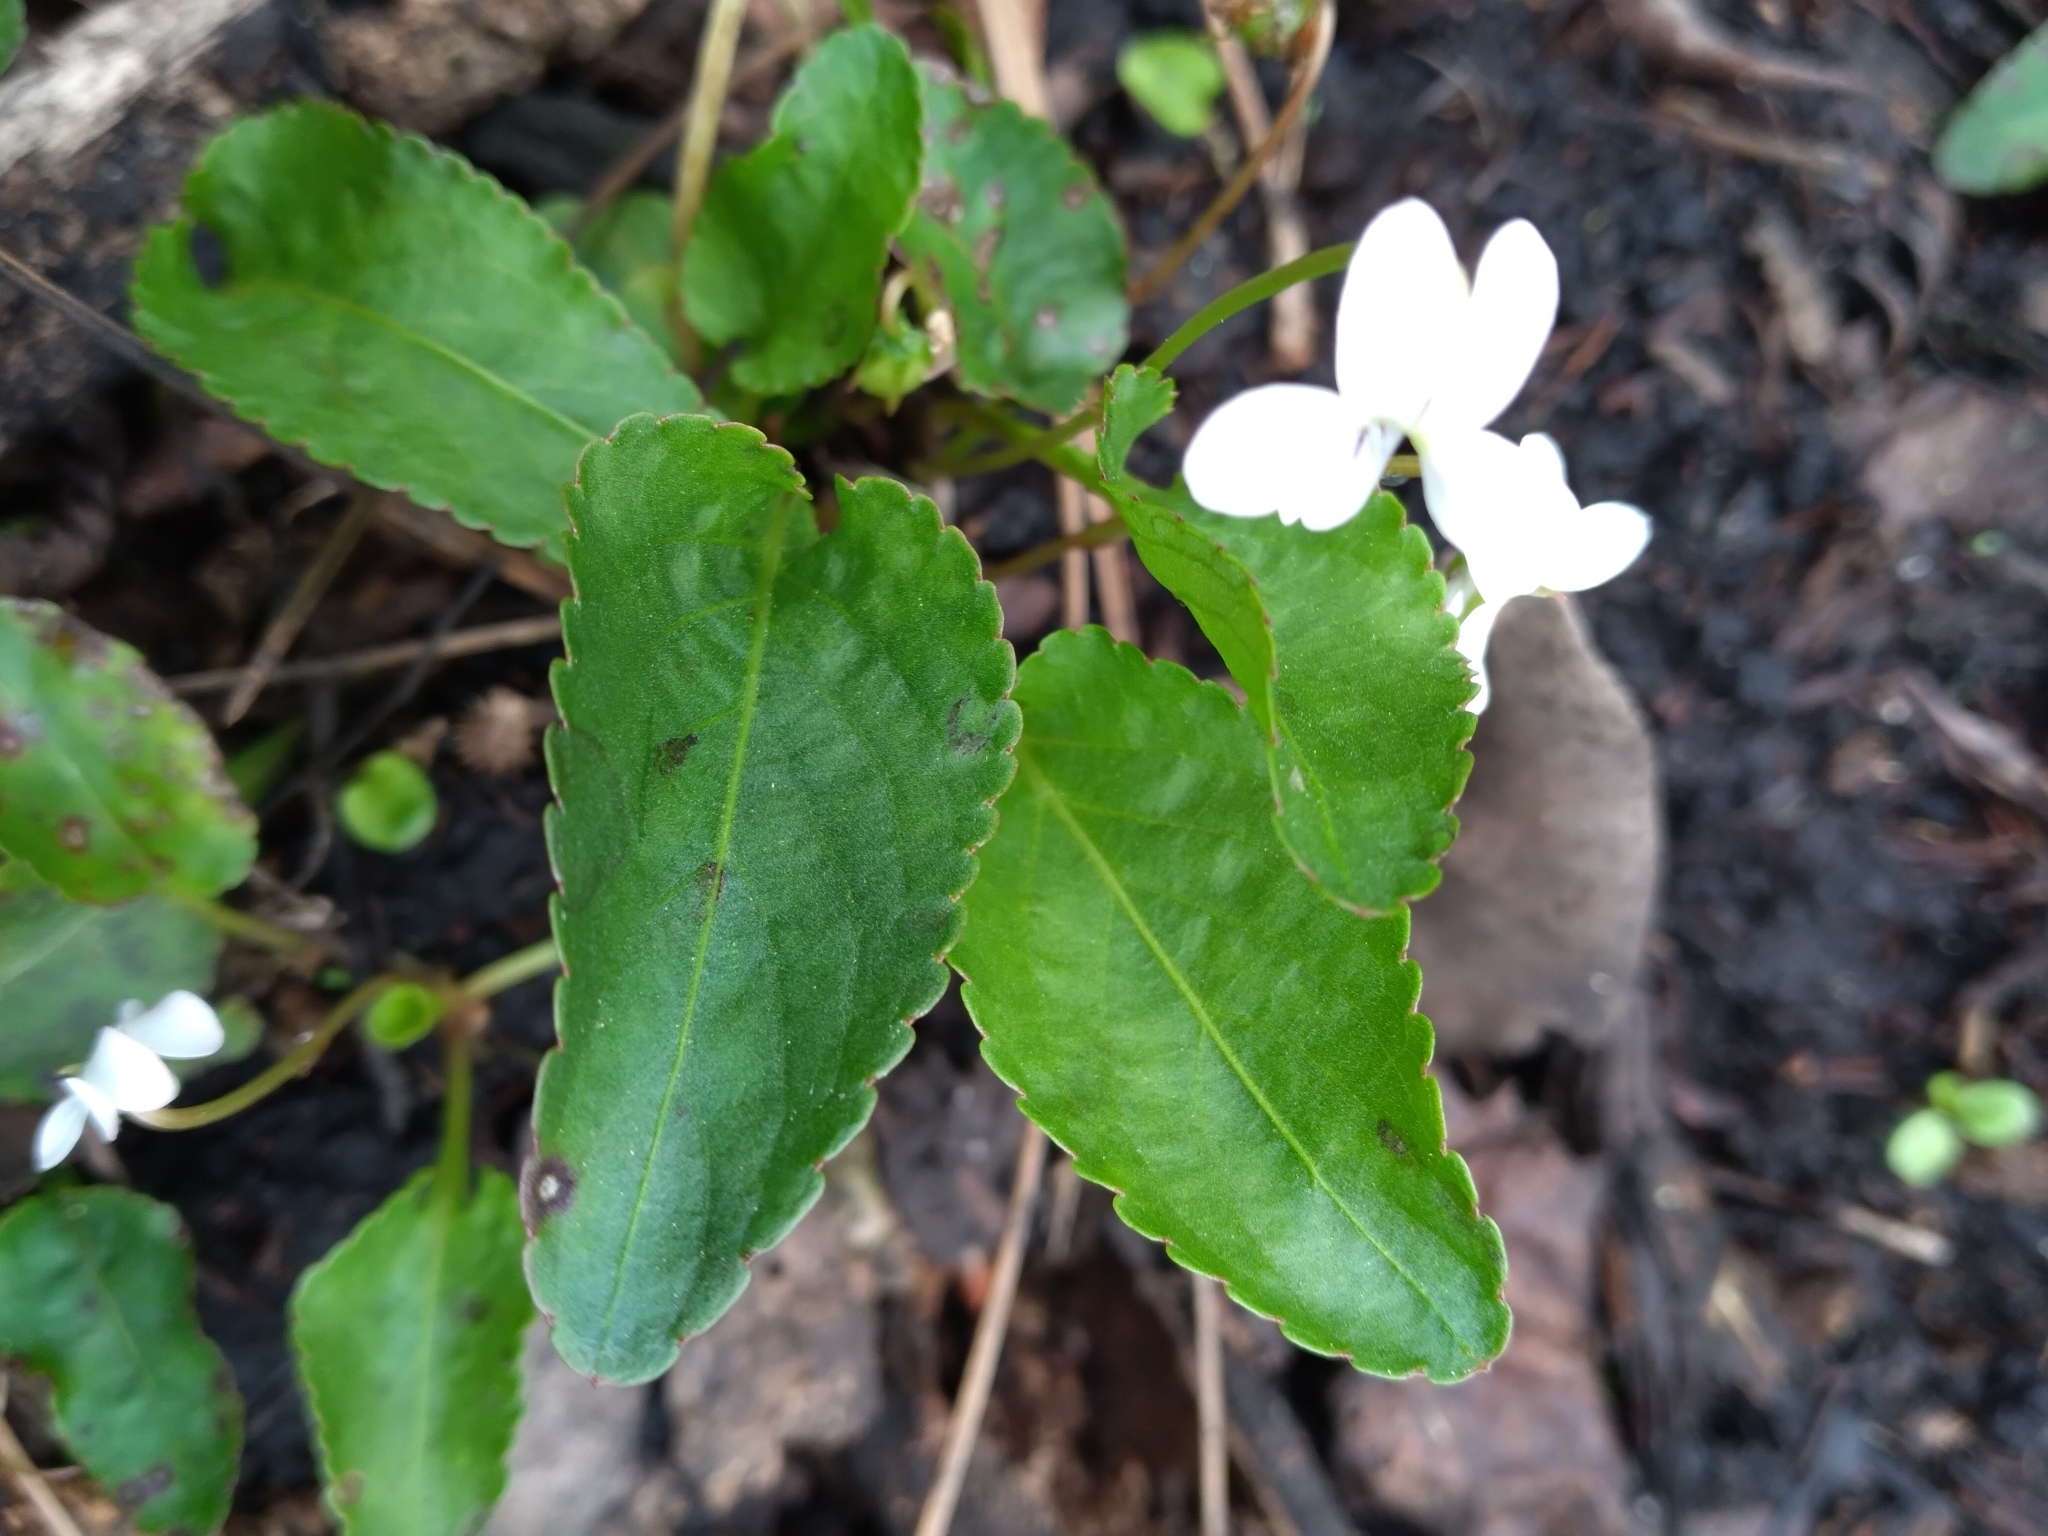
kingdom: Plantae
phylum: Tracheophyta
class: Magnoliopsida
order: Malpighiales
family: Violaceae
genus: Viola
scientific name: Viola primulifolia
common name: Primrose-leaf violet
